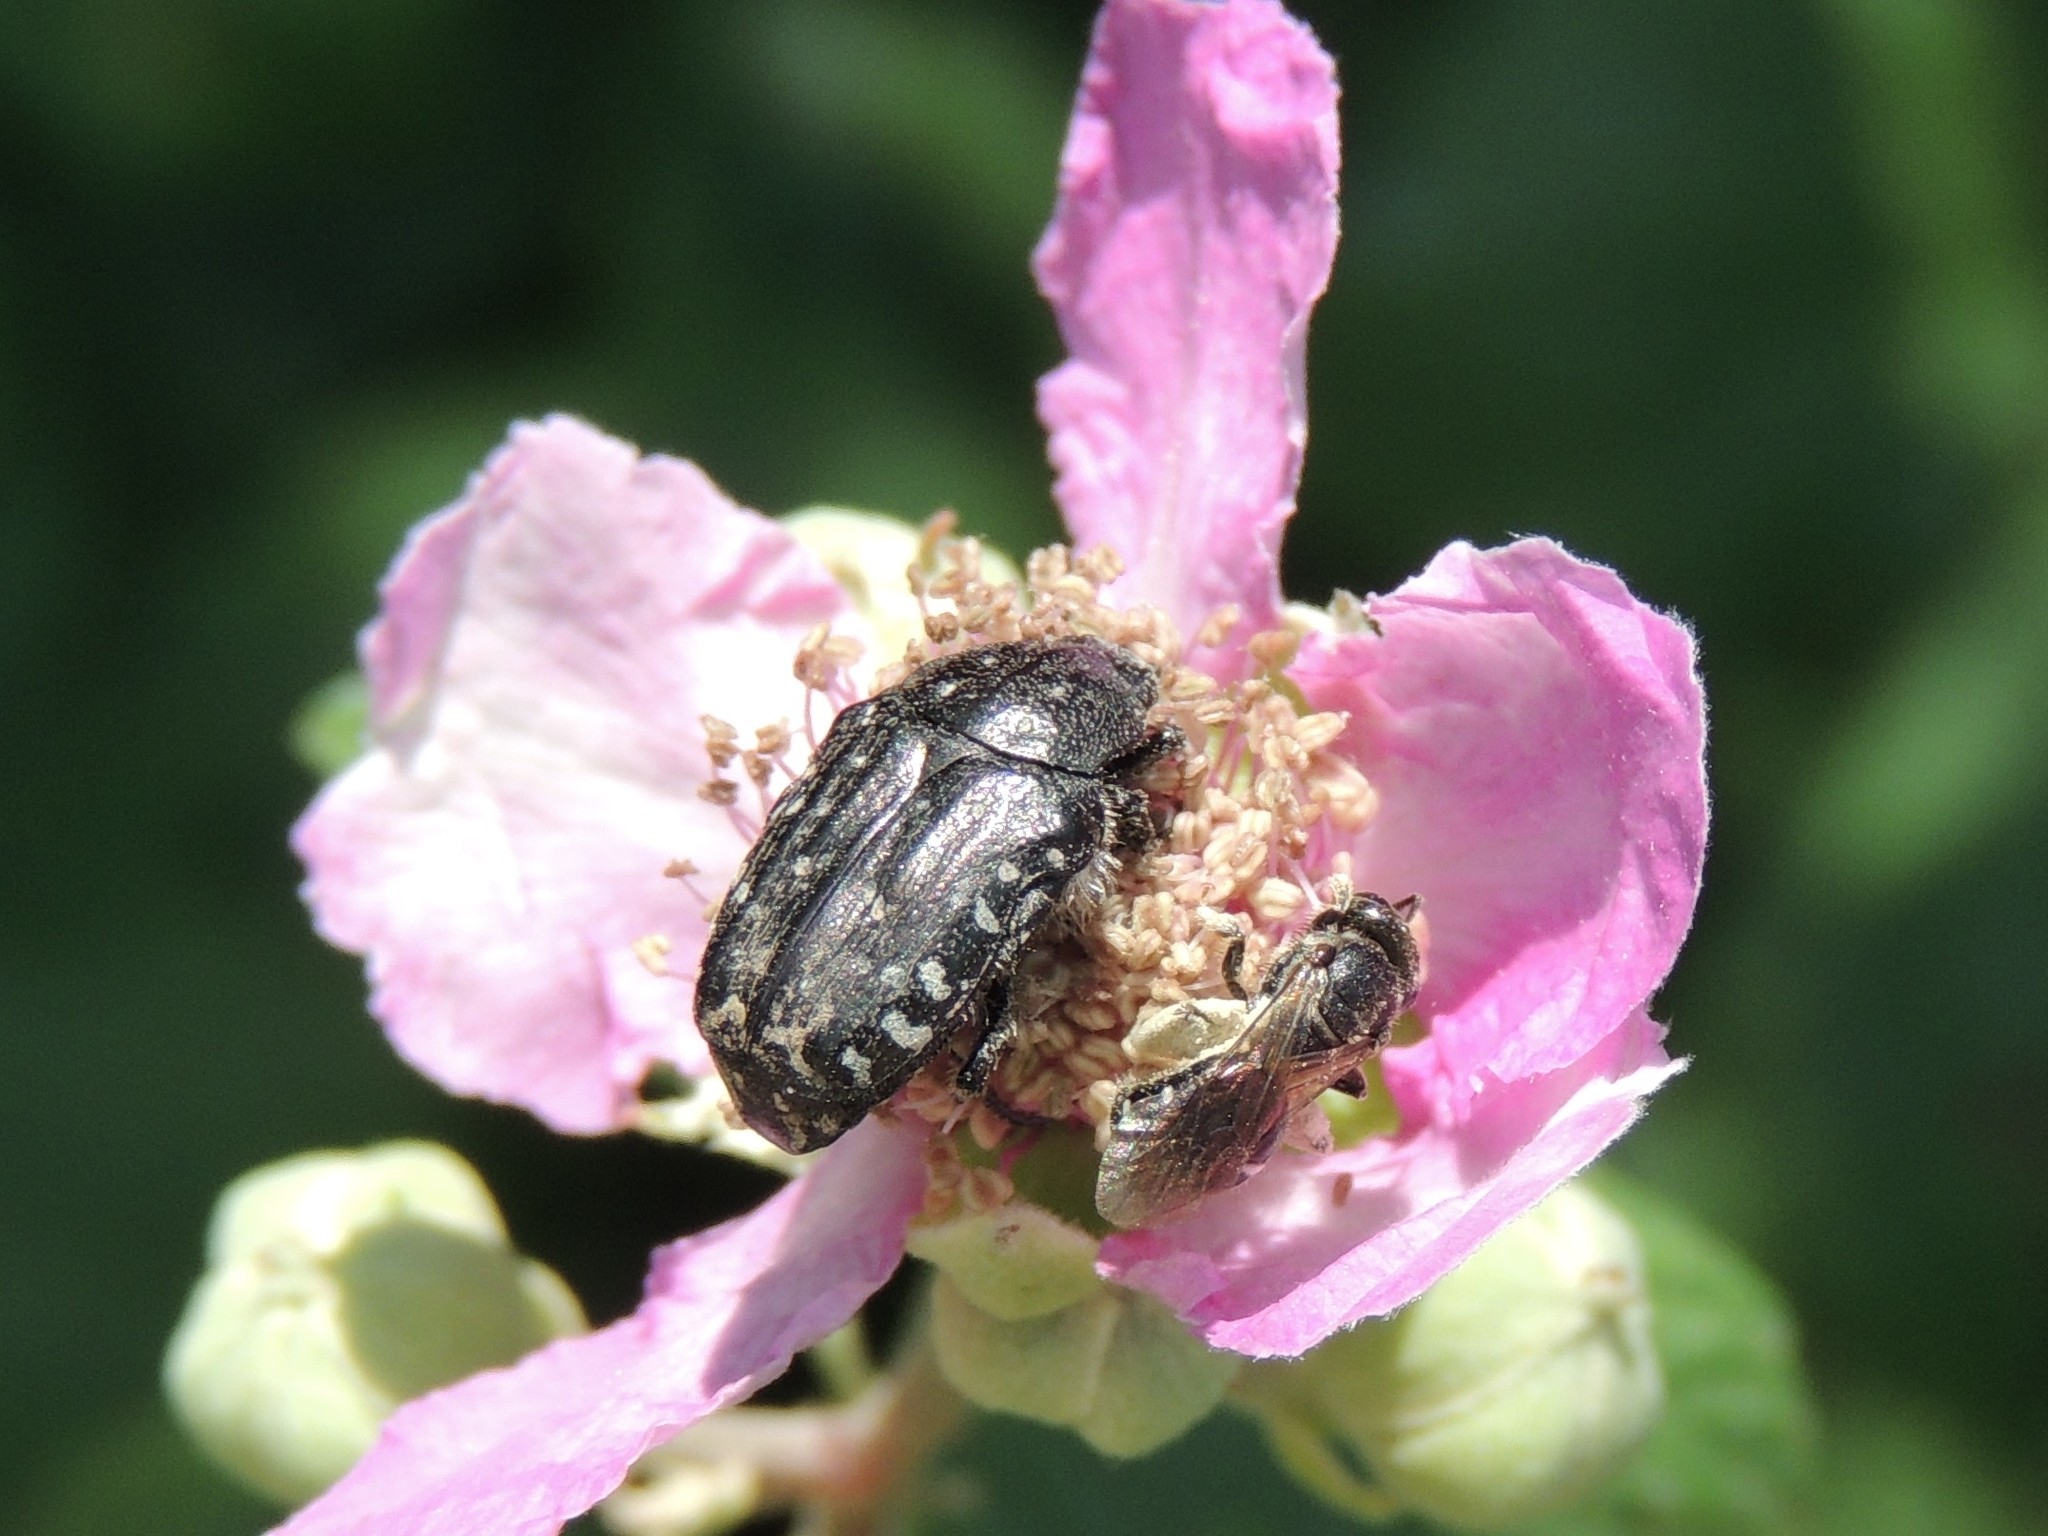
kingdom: Animalia
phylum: Arthropoda
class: Insecta
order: Coleoptera
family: Scarabaeidae
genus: Oxythyrea
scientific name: Oxythyrea funesta
